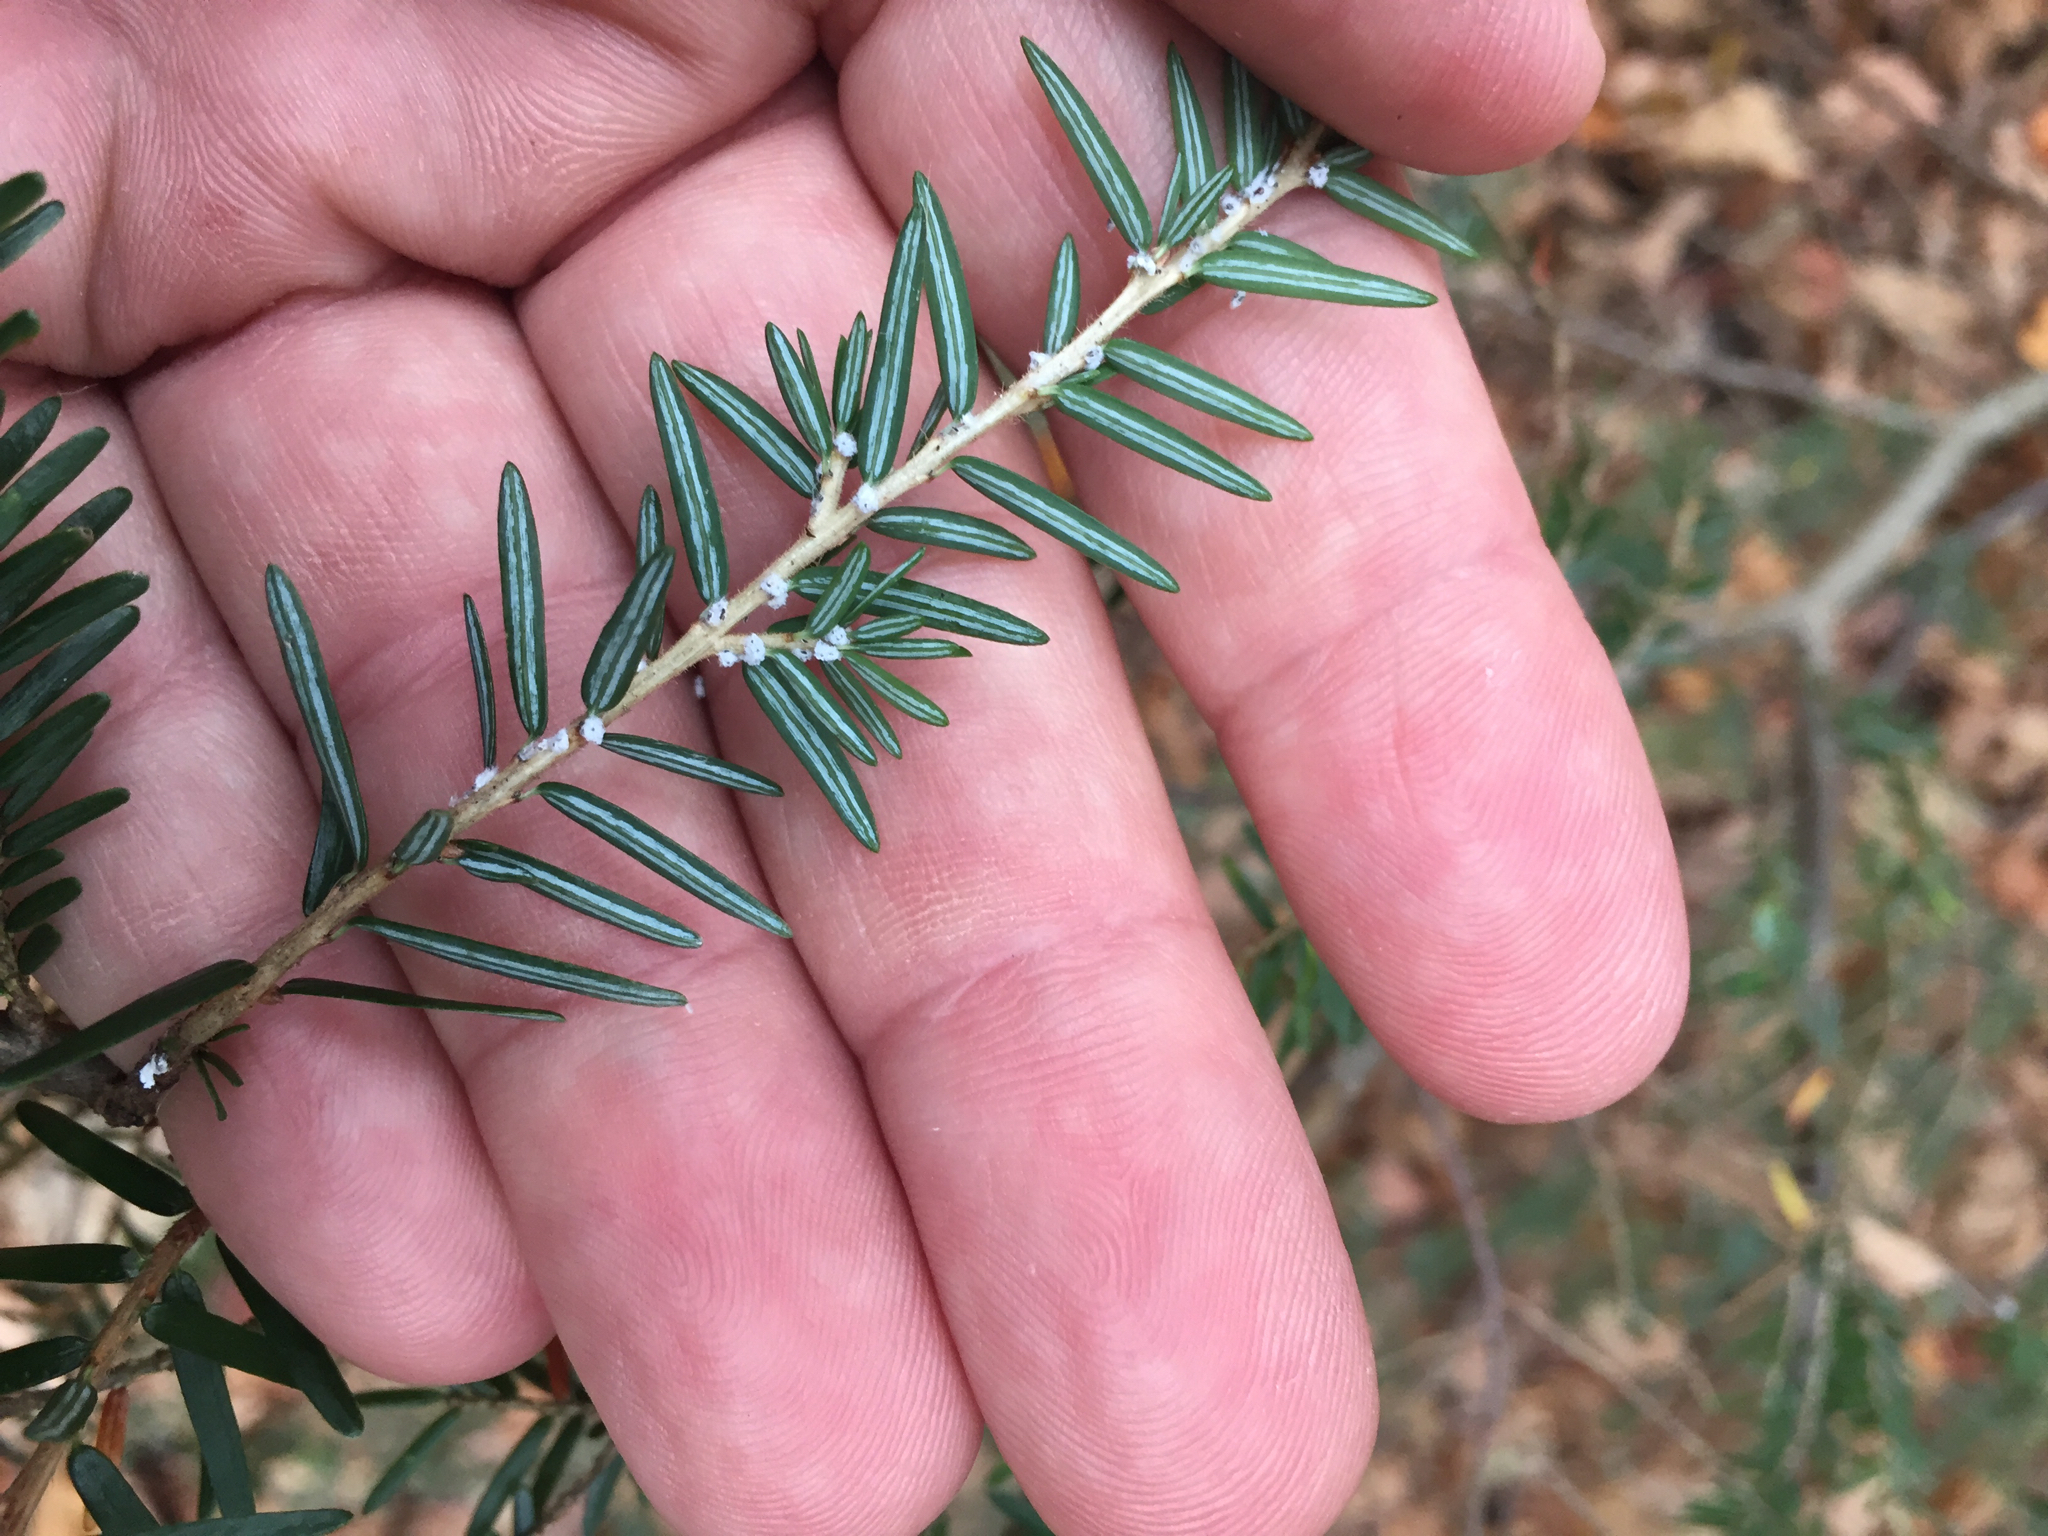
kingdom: Animalia
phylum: Arthropoda
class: Insecta
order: Hemiptera
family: Adelgidae
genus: Adelges
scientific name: Adelges tsugae
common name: Hemlock woolly adelgid
